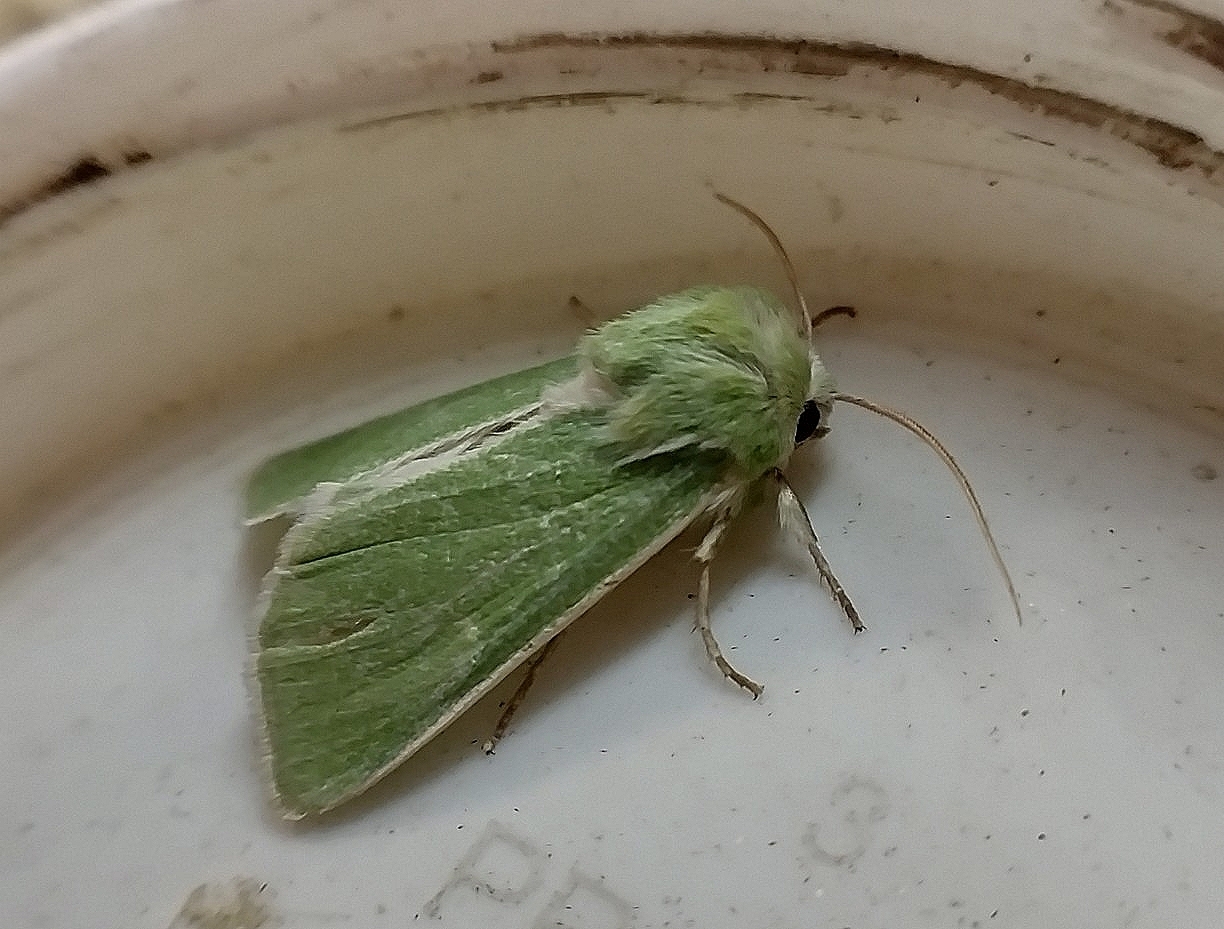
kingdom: Animalia
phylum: Arthropoda
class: Insecta
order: Lepidoptera
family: Noctuidae
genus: Calamia
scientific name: Calamia tridens
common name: Burren green
